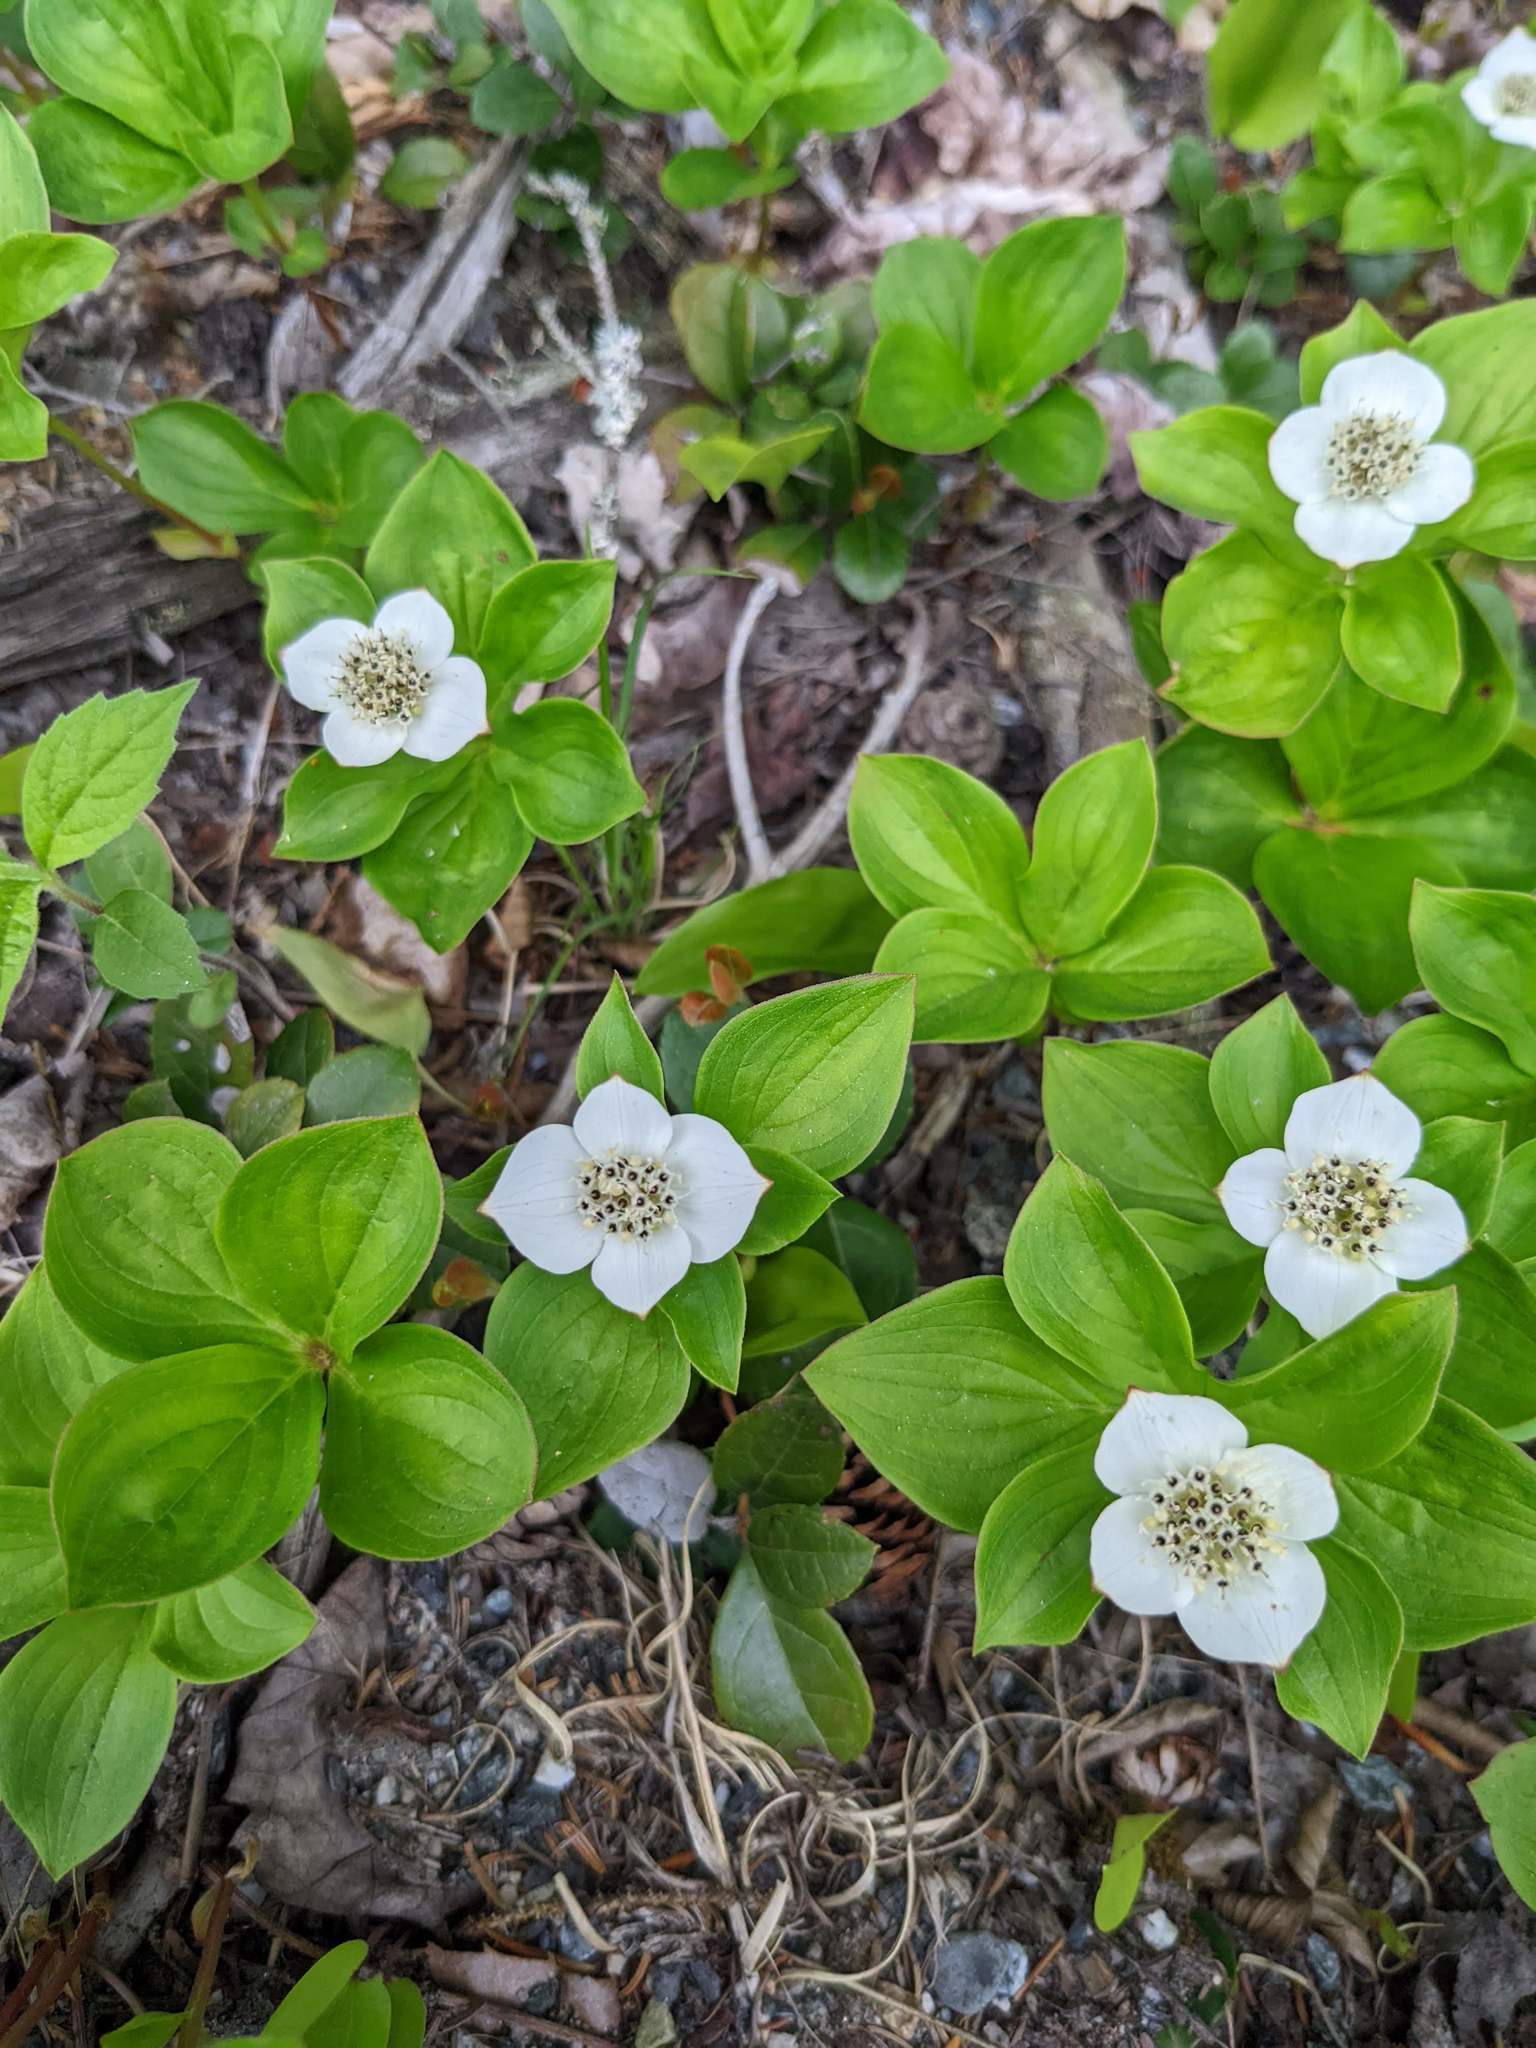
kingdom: Plantae
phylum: Tracheophyta
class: Magnoliopsida
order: Cornales
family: Cornaceae
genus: Cornus
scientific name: Cornus canadensis
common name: Creeping dogwood
